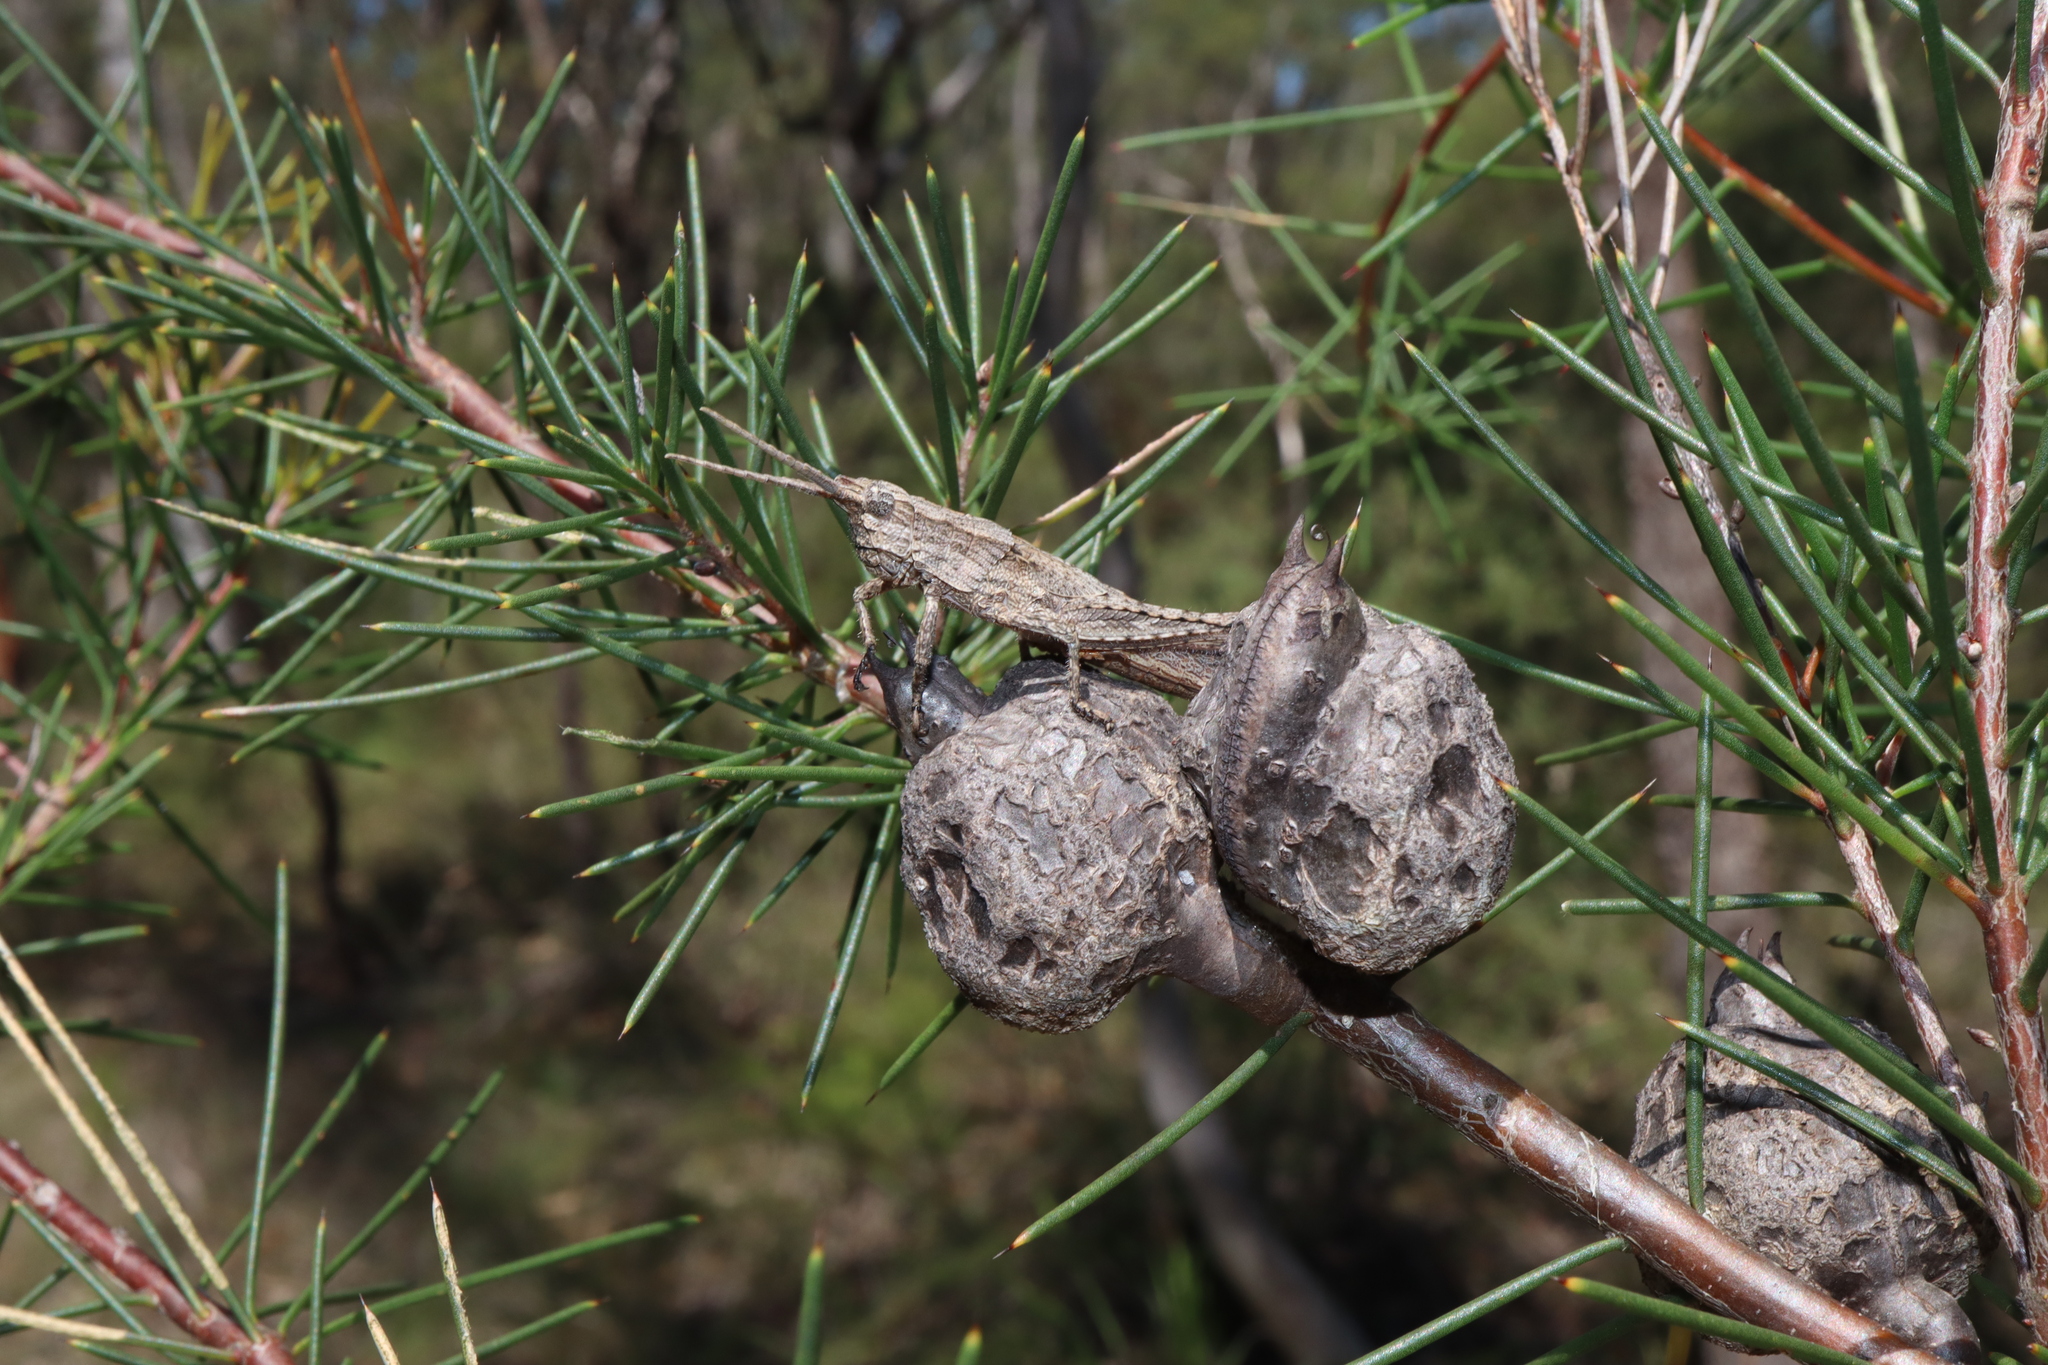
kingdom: Animalia
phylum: Arthropoda
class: Insecta
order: Orthoptera
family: Acrididae
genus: Coryphistes
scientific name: Coryphistes ruricola
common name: Bark-mimicking grasshopper
